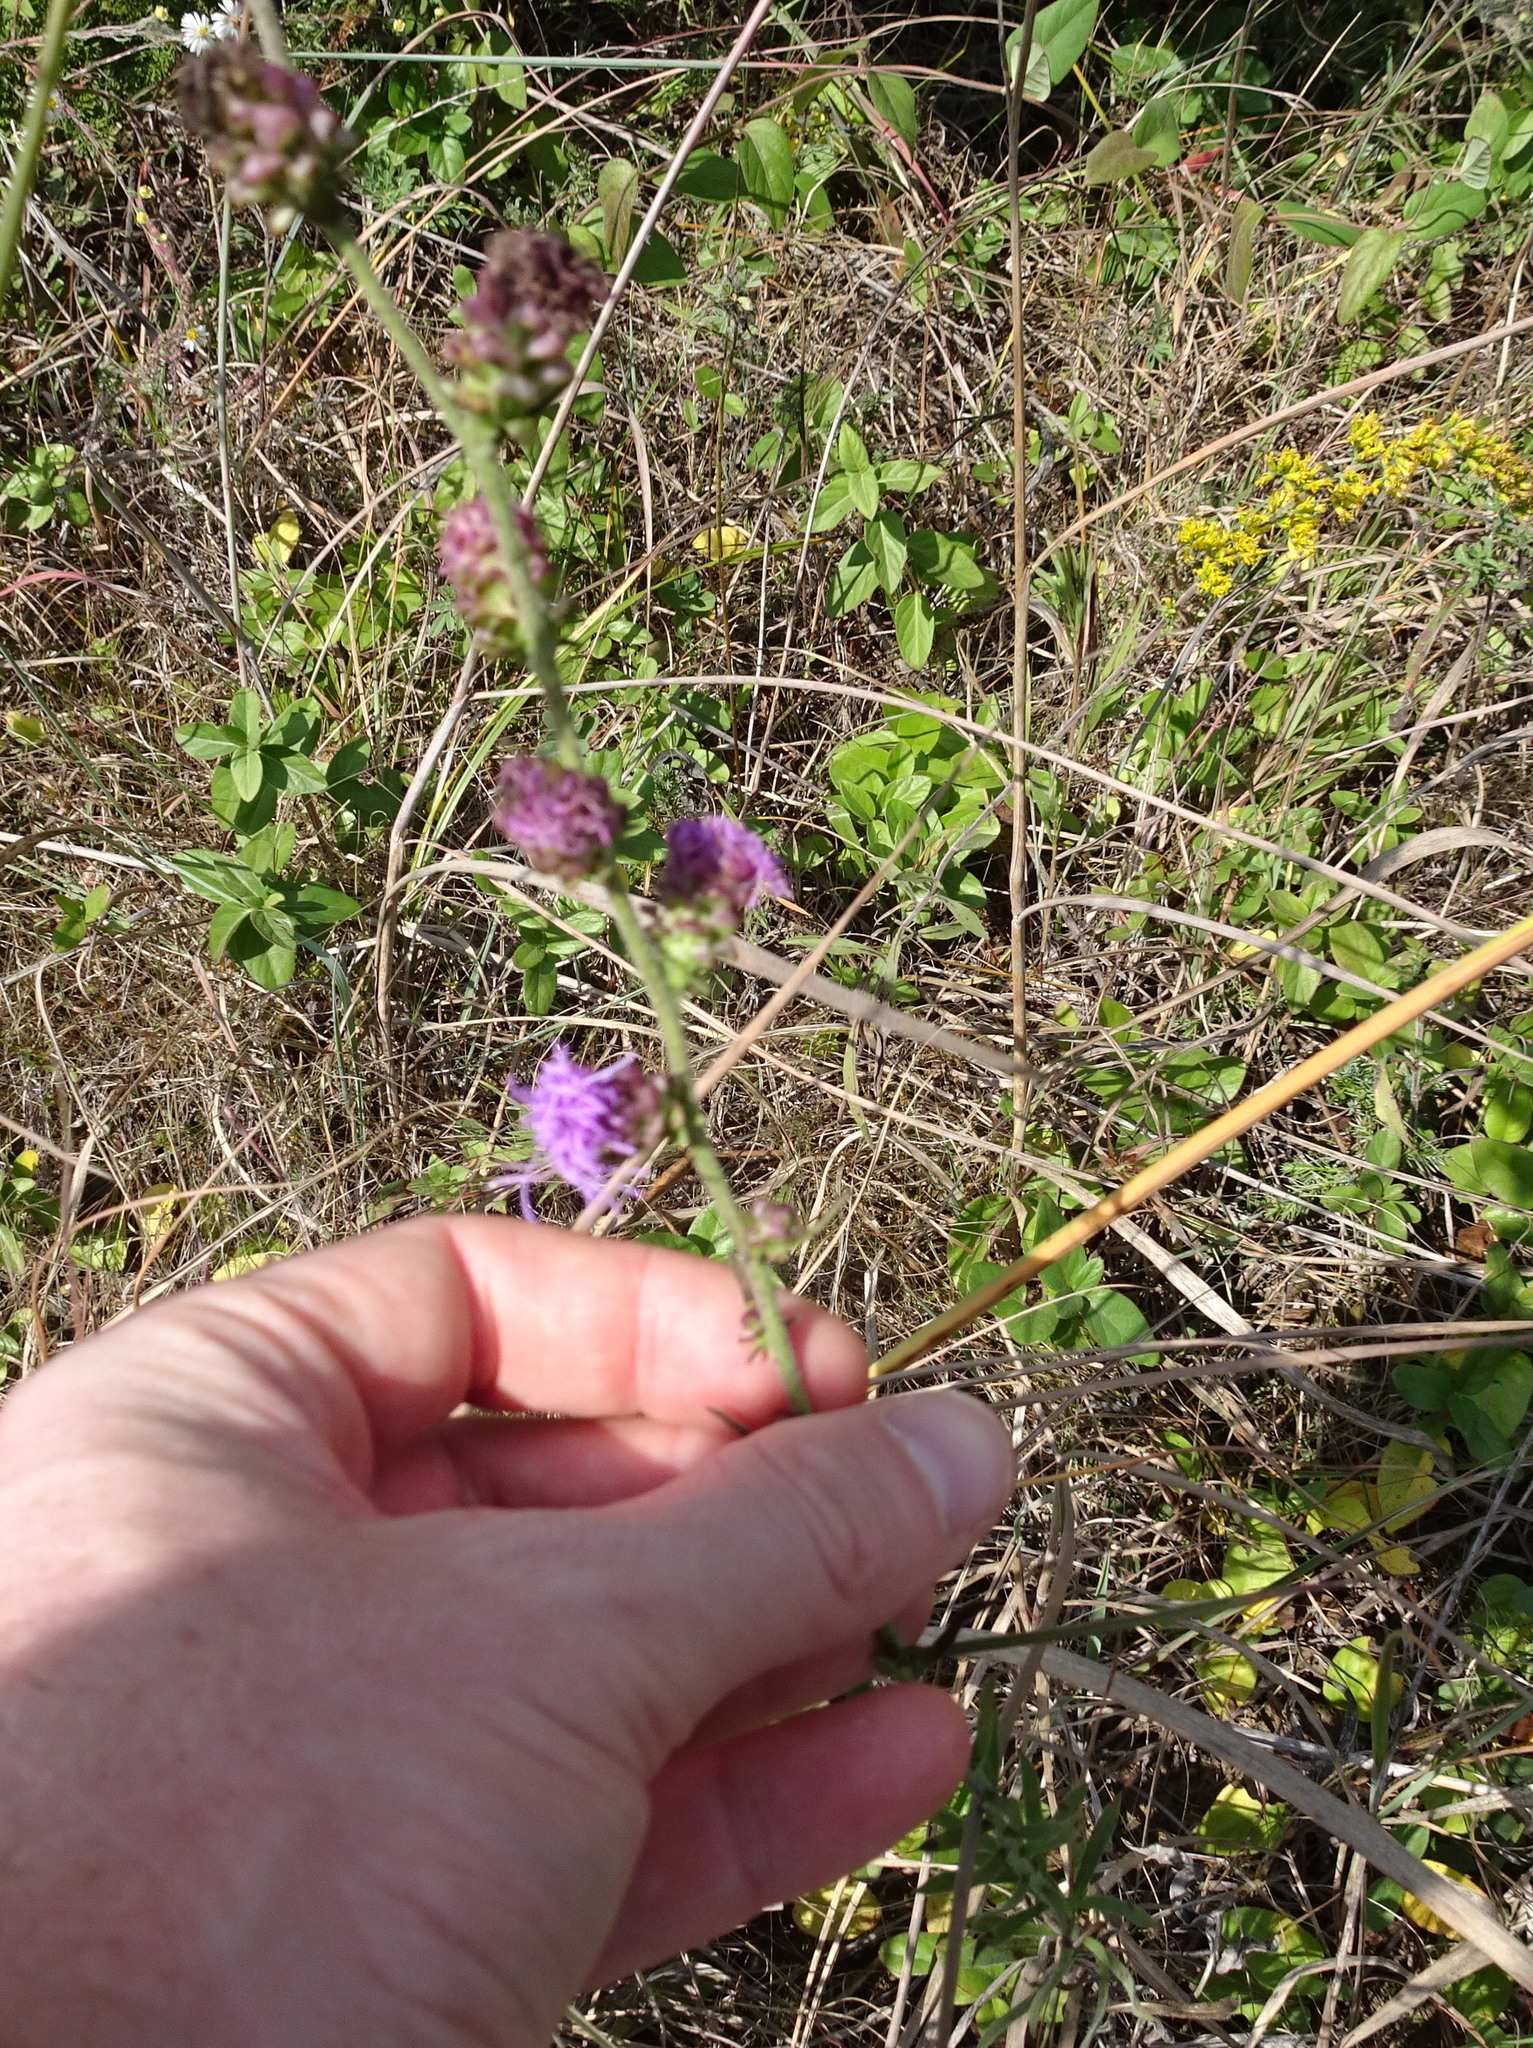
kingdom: Plantae
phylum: Tracheophyta
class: Magnoliopsida
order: Asterales
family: Asteraceae
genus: Liatris
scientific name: Liatris aspera
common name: Lacerate blazing-star
